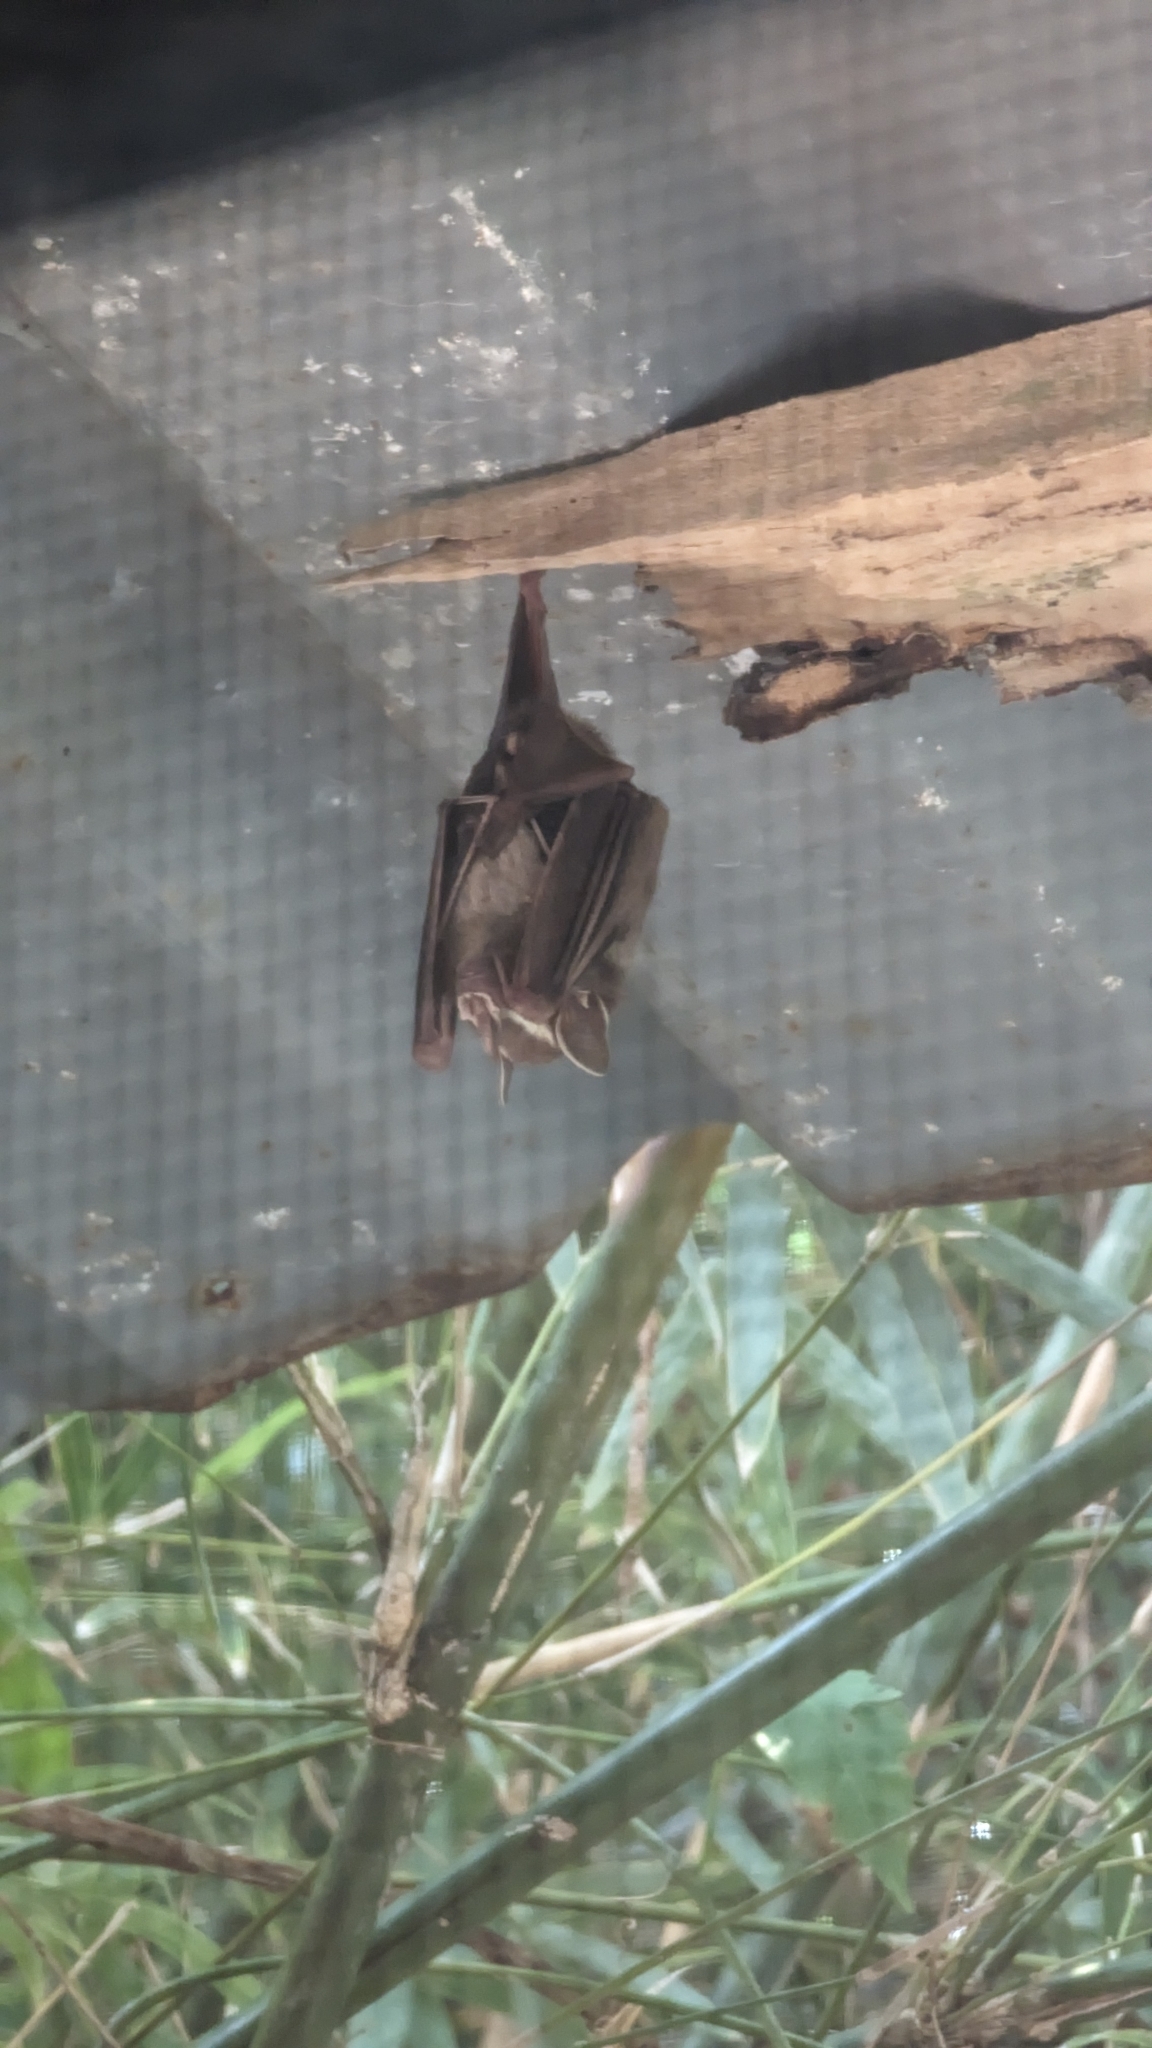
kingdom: Animalia
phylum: Chordata
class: Mammalia
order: Chiroptera
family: Phyllostomidae
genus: Uroderma
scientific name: Uroderma bilobatum
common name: Common tent-making bat
